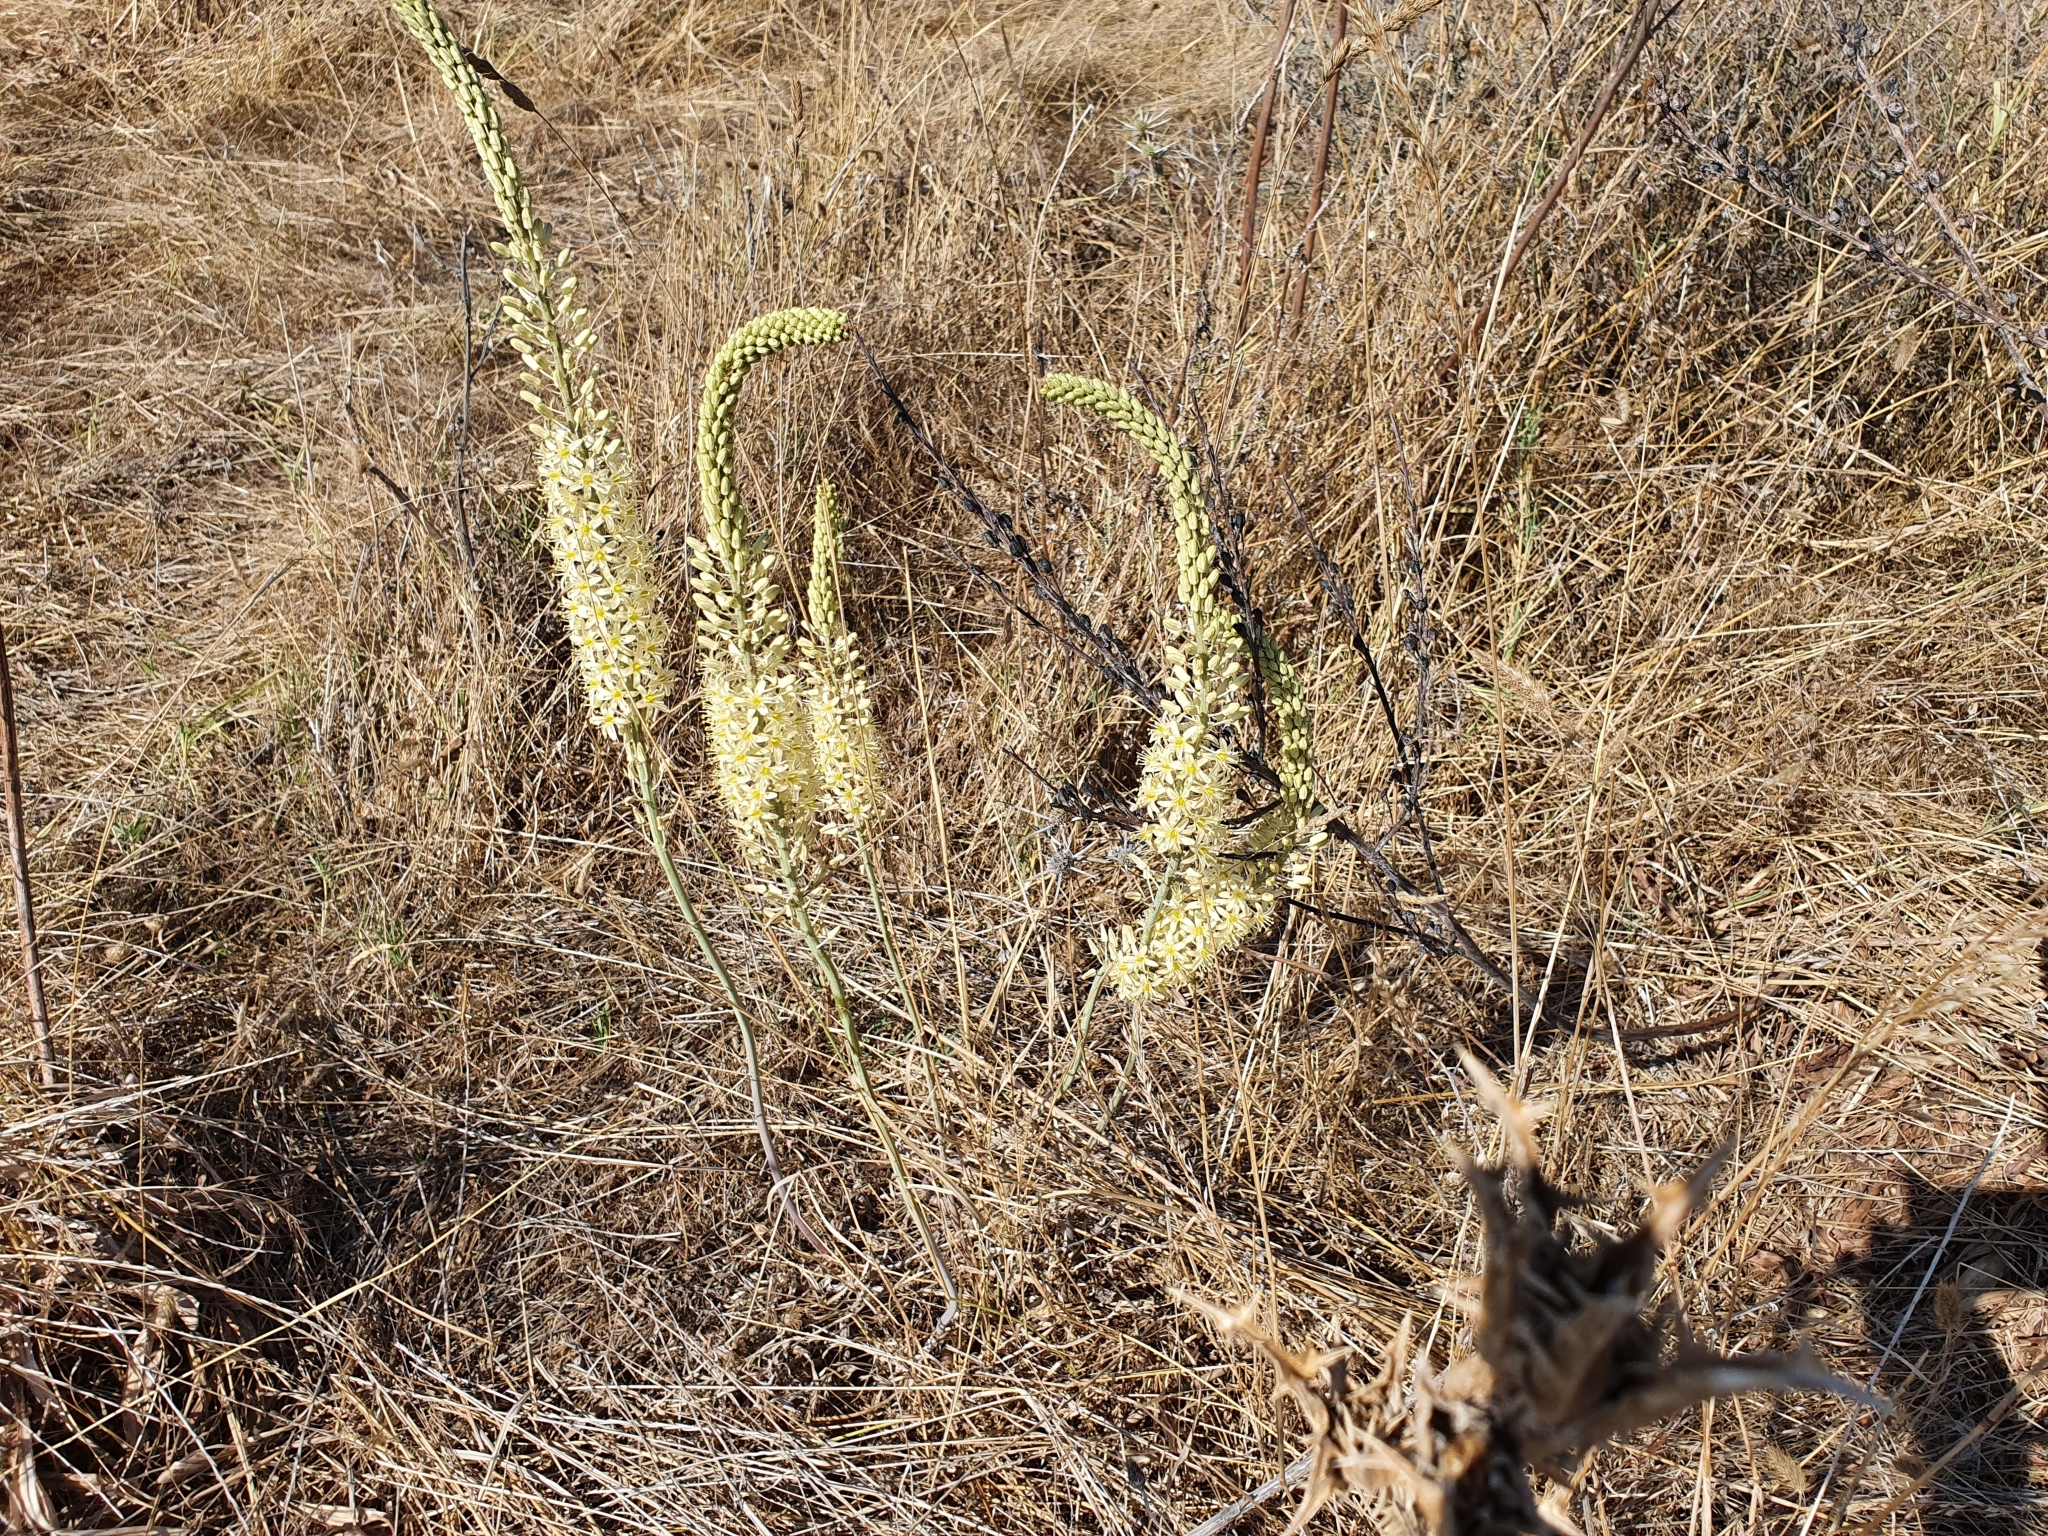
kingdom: Plantae
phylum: Tracheophyta
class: Liliopsida
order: Asparagales
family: Asparagaceae
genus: Drimia
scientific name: Drimia anthericoides
